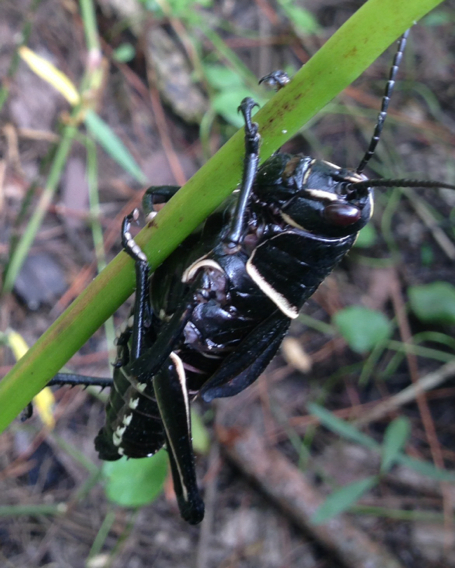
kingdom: Animalia
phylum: Arthropoda
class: Insecta
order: Orthoptera
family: Romaleidae
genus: Romalea
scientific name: Romalea microptera
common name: Eastern lubber grasshopper
